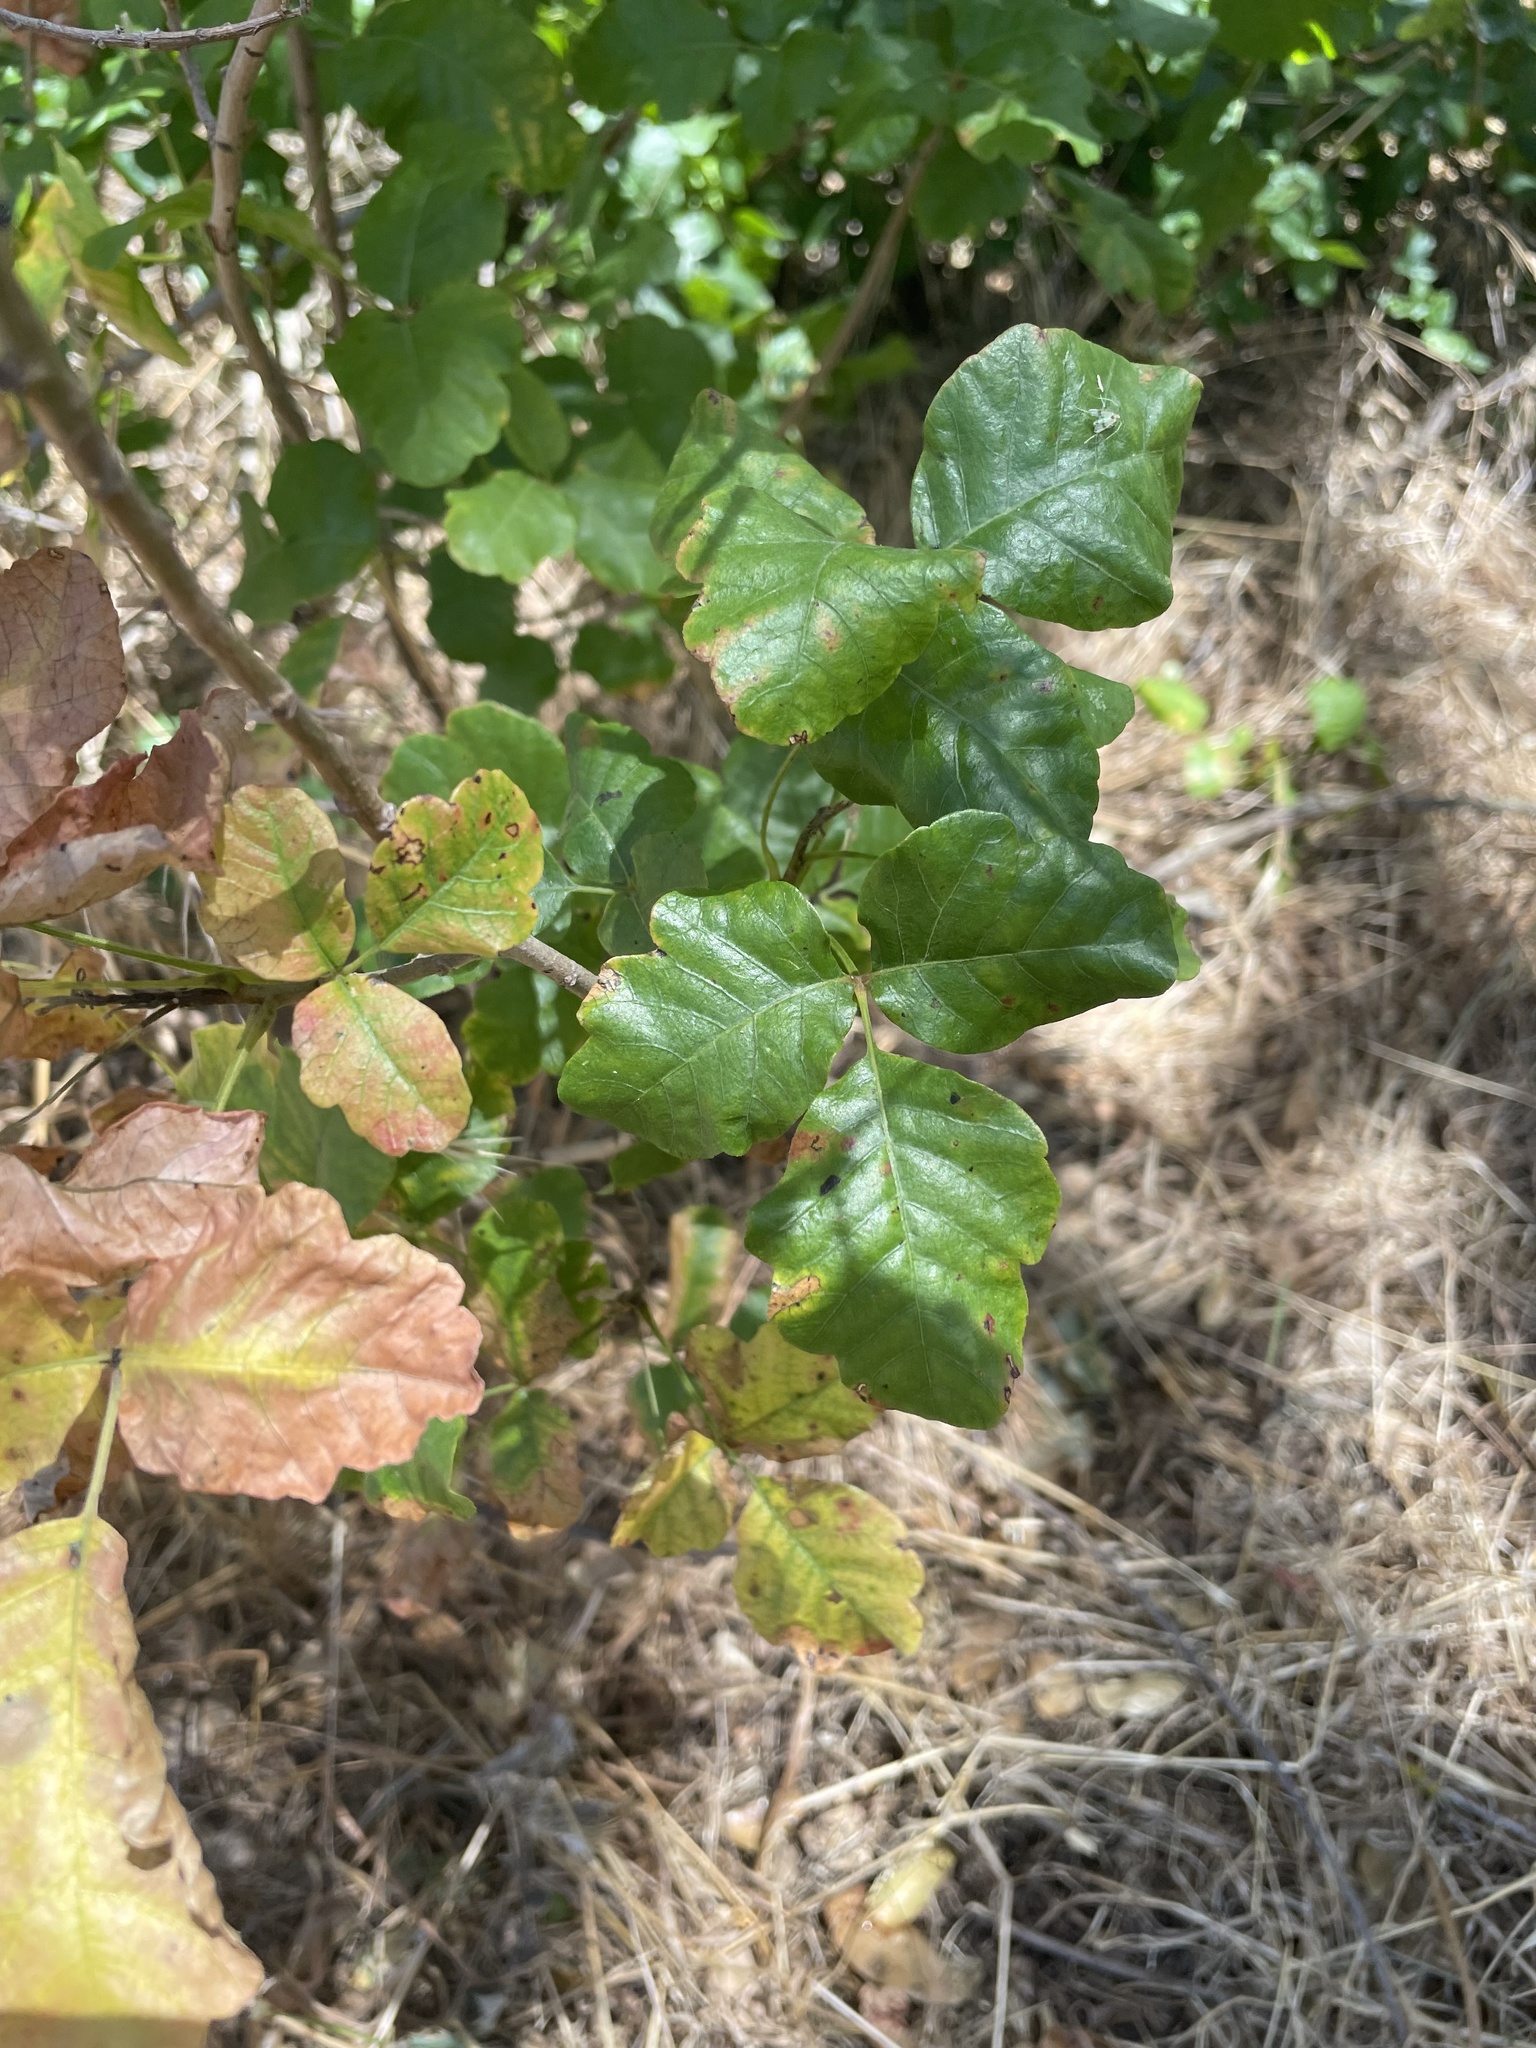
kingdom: Plantae
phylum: Tracheophyta
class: Magnoliopsida
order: Sapindales
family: Anacardiaceae
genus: Toxicodendron
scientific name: Toxicodendron diversilobum
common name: Pacific poison-oak
